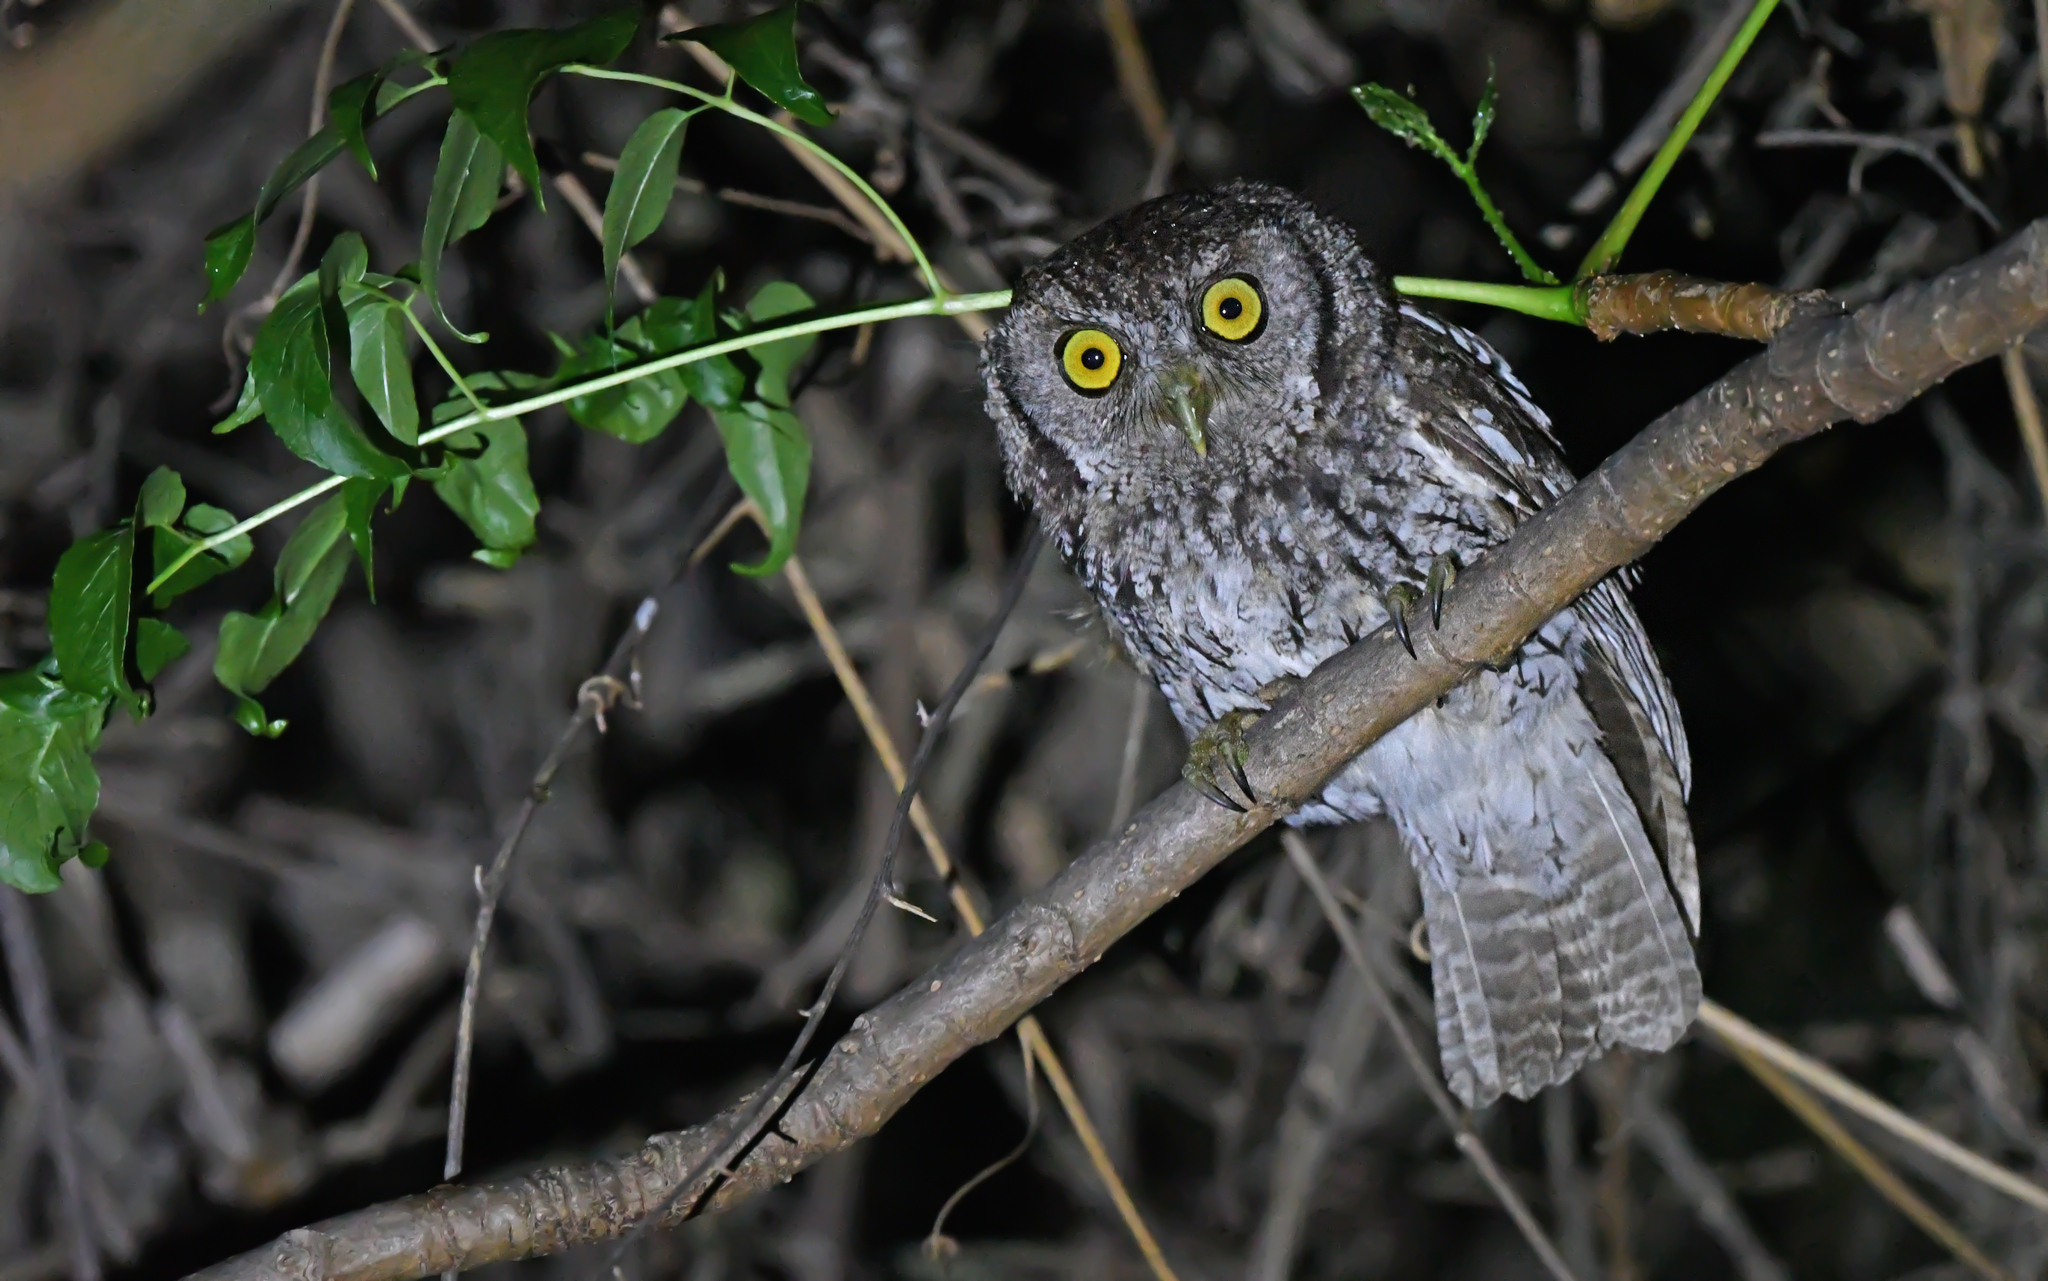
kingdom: Animalia
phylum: Chordata
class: Aves
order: Strigiformes
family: Strigidae
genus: Megascops
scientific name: Megascops koepckeae
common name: Koepcke's screech owl
